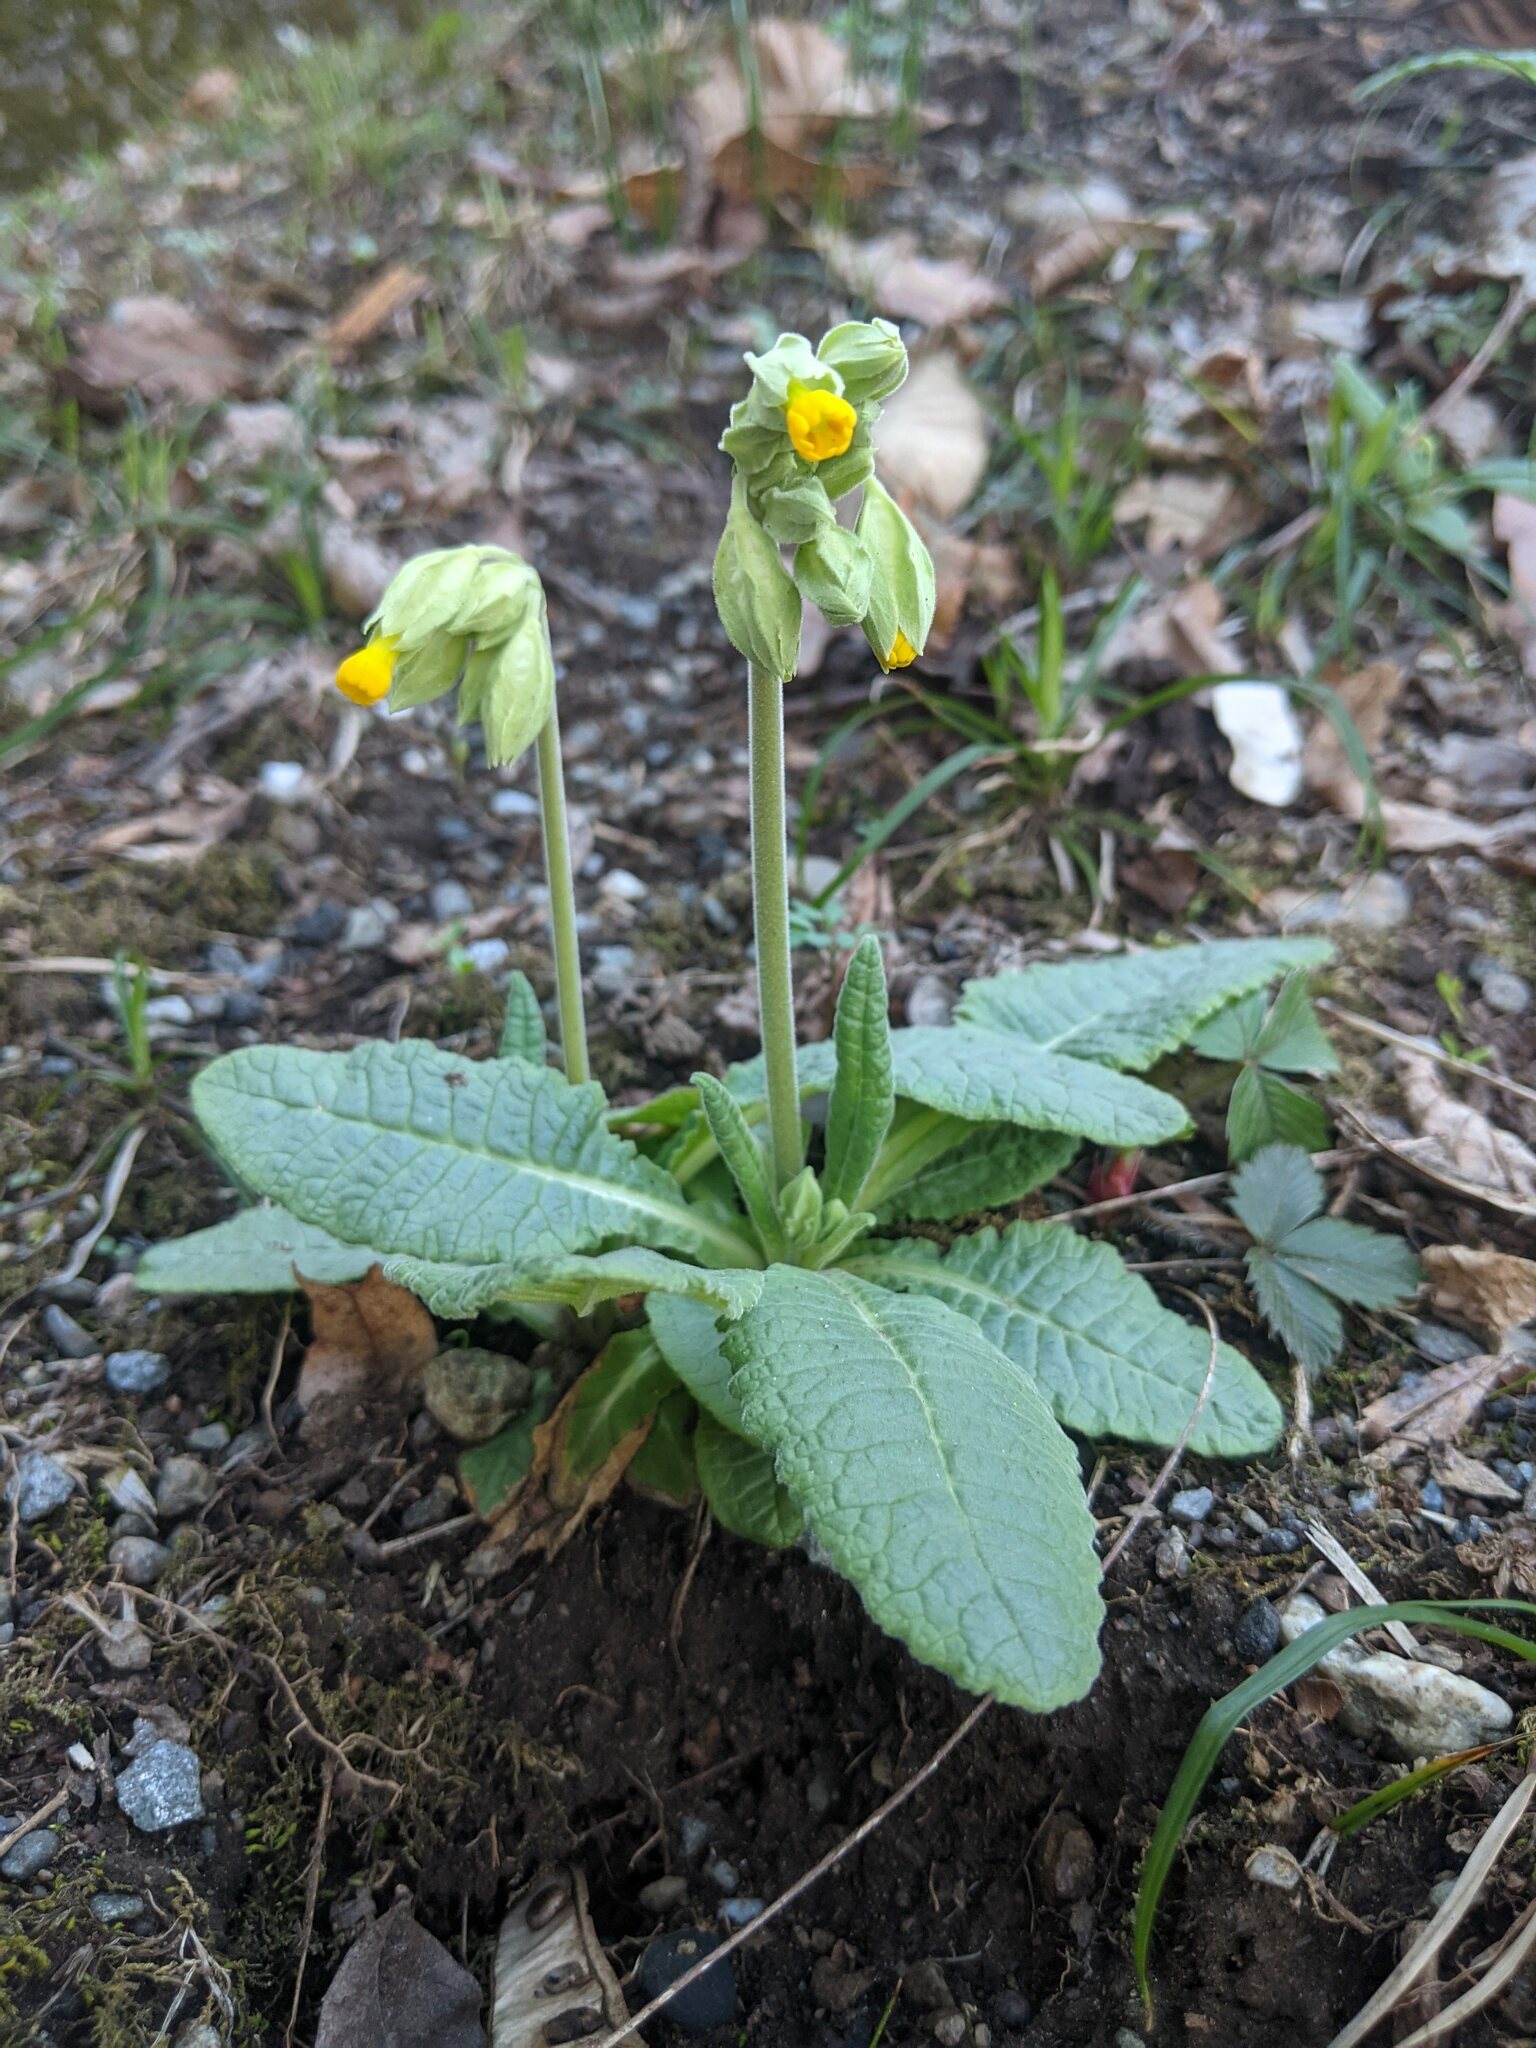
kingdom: Plantae
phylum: Tracheophyta
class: Magnoliopsida
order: Ericales
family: Primulaceae
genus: Primula
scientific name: Primula veris
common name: Cowslip
